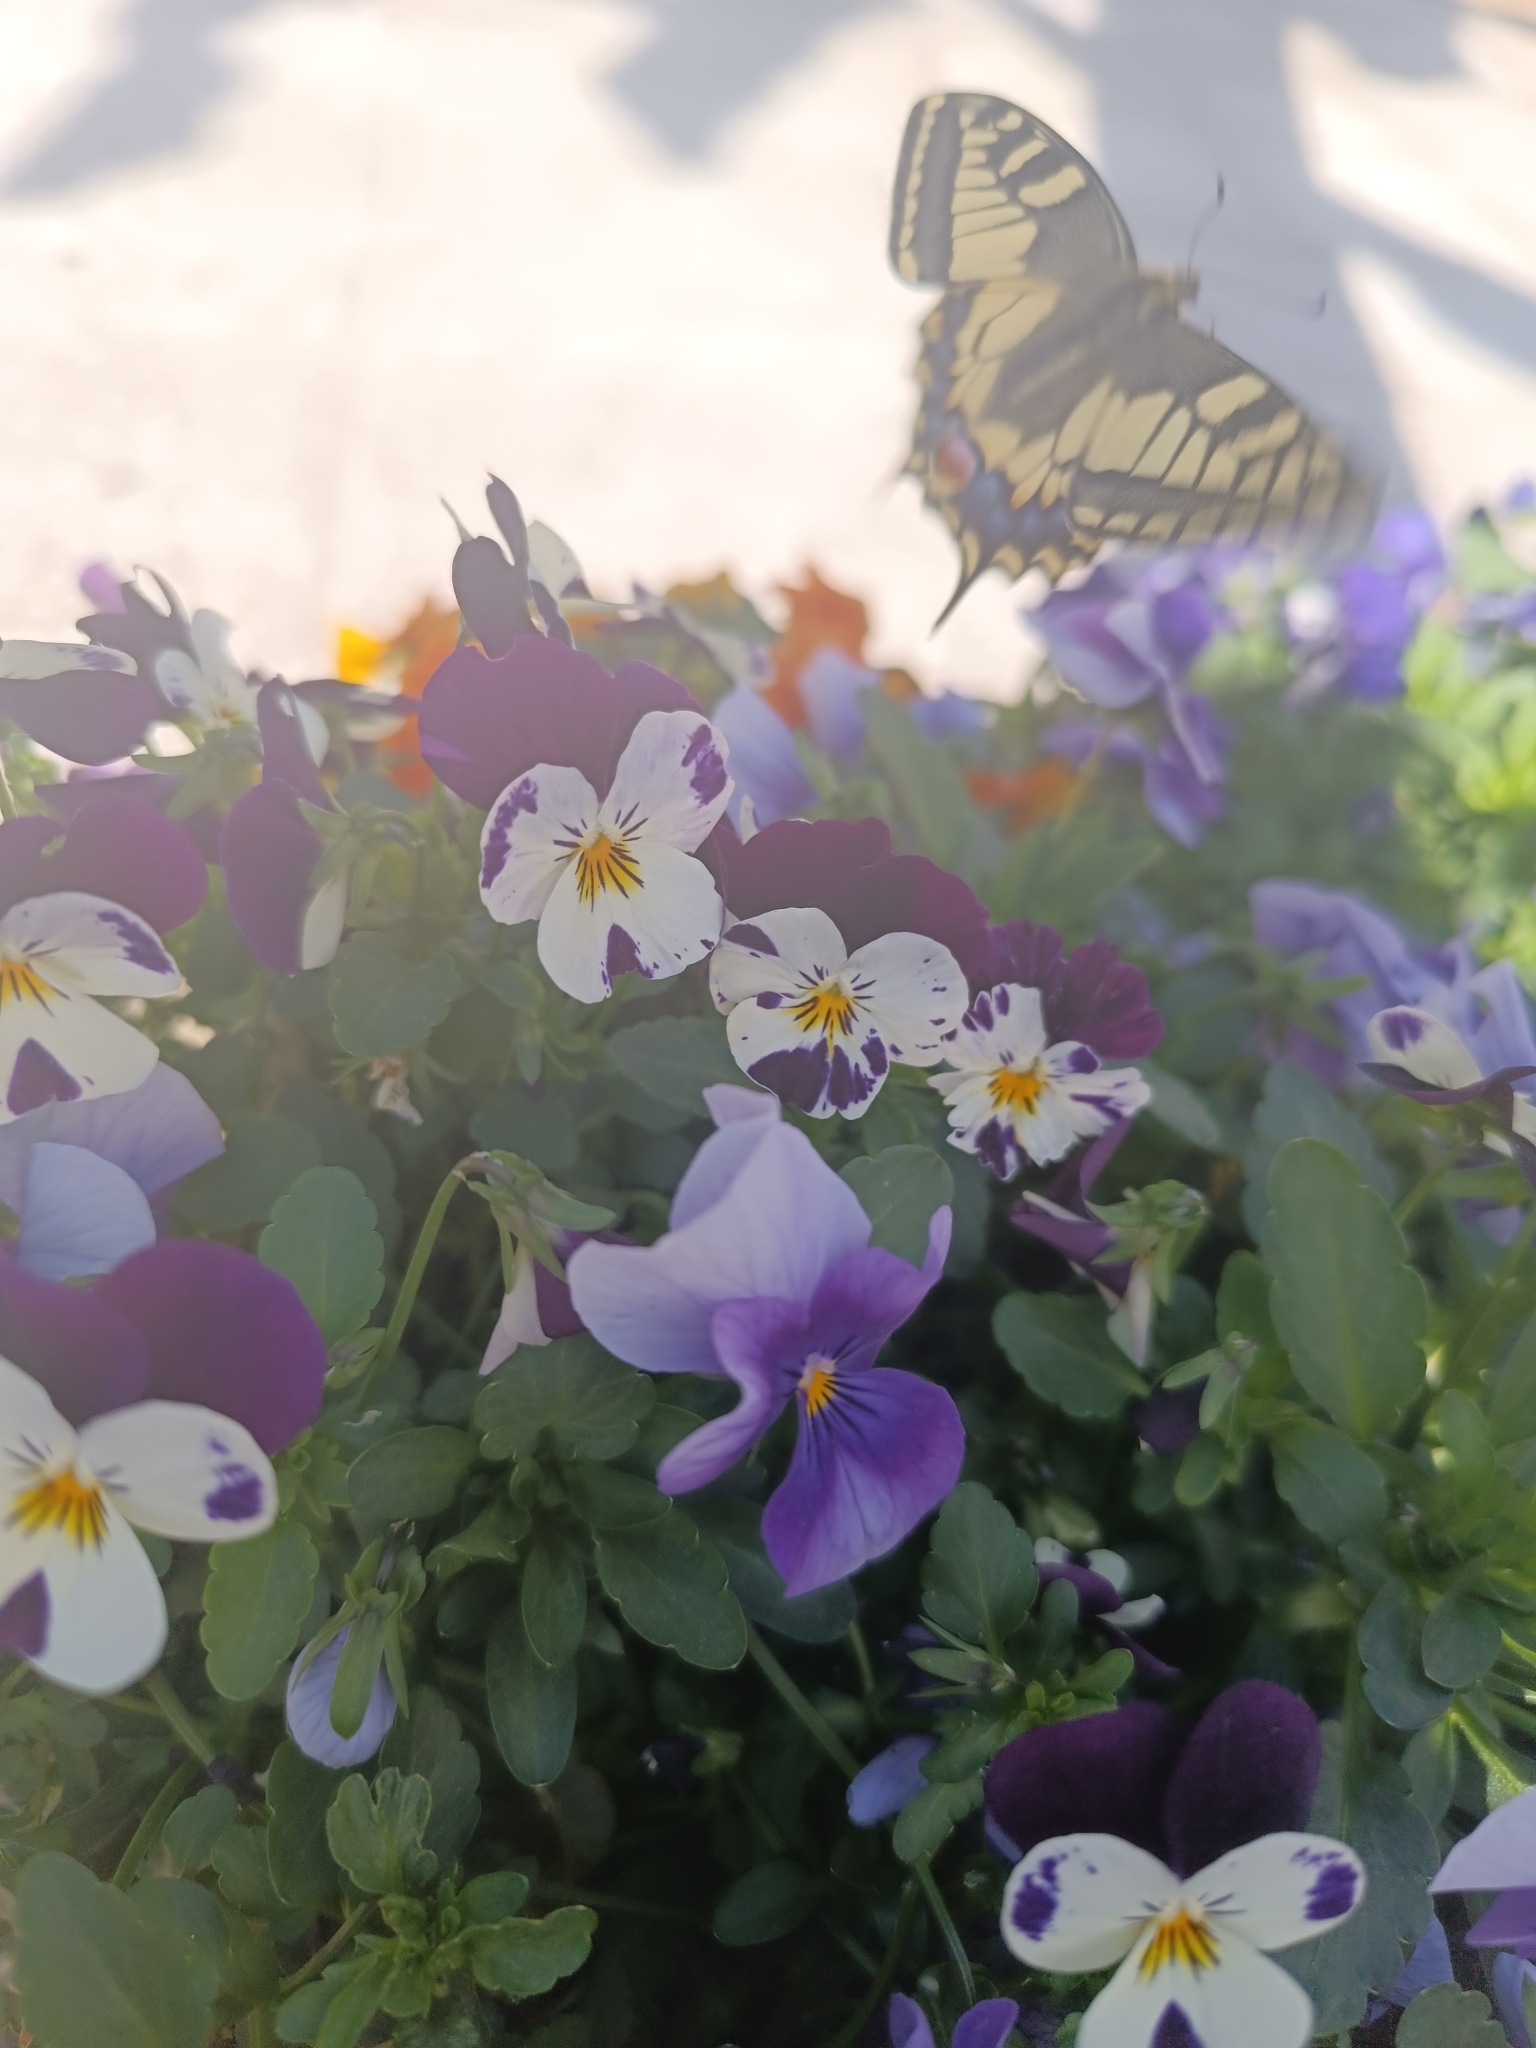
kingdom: Animalia
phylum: Arthropoda
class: Insecta
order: Lepidoptera
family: Papilionidae
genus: Papilio
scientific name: Papilio machaon
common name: Swallowtail
